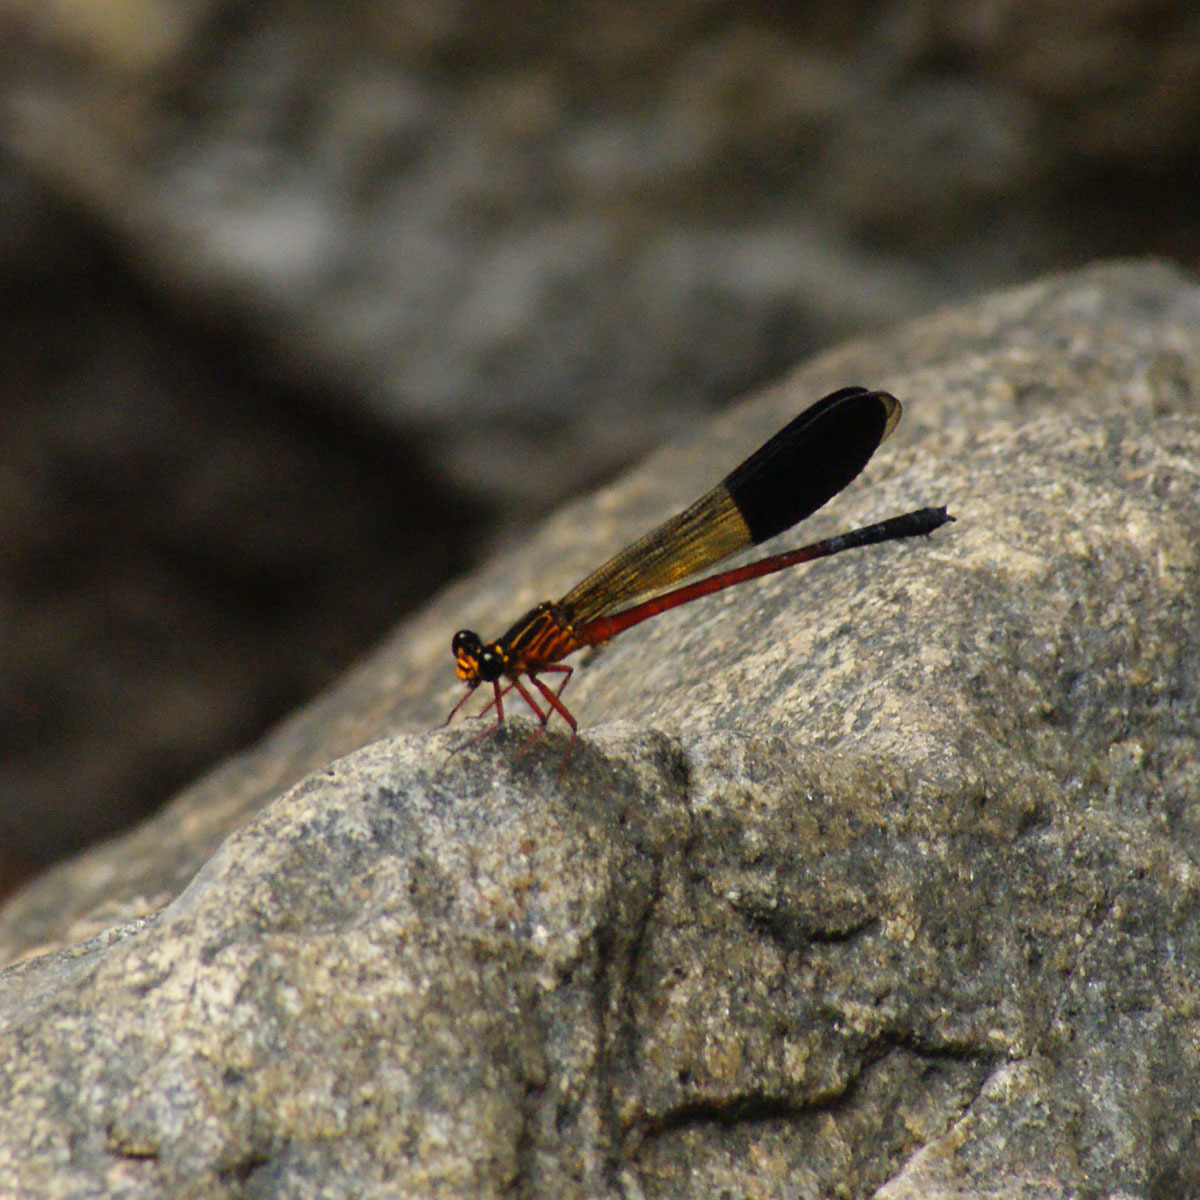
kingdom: Animalia
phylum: Arthropoda
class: Insecta
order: Odonata
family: Euphaeidae
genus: Euphaea
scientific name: Euphaea cardinalis
